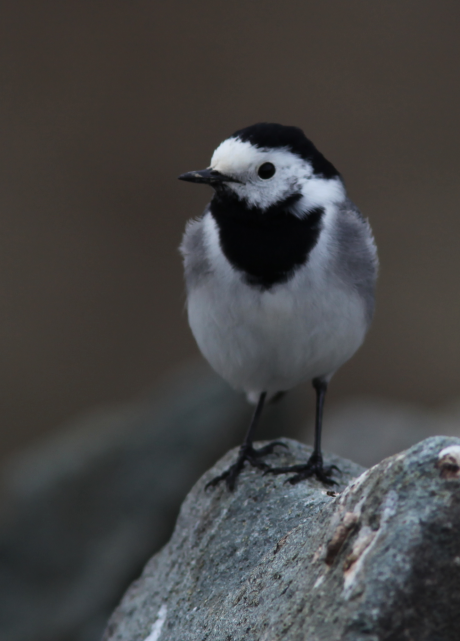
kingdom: Animalia
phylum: Chordata
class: Aves
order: Passeriformes
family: Motacillidae
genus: Motacilla
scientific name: Motacilla alba
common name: White wagtail
